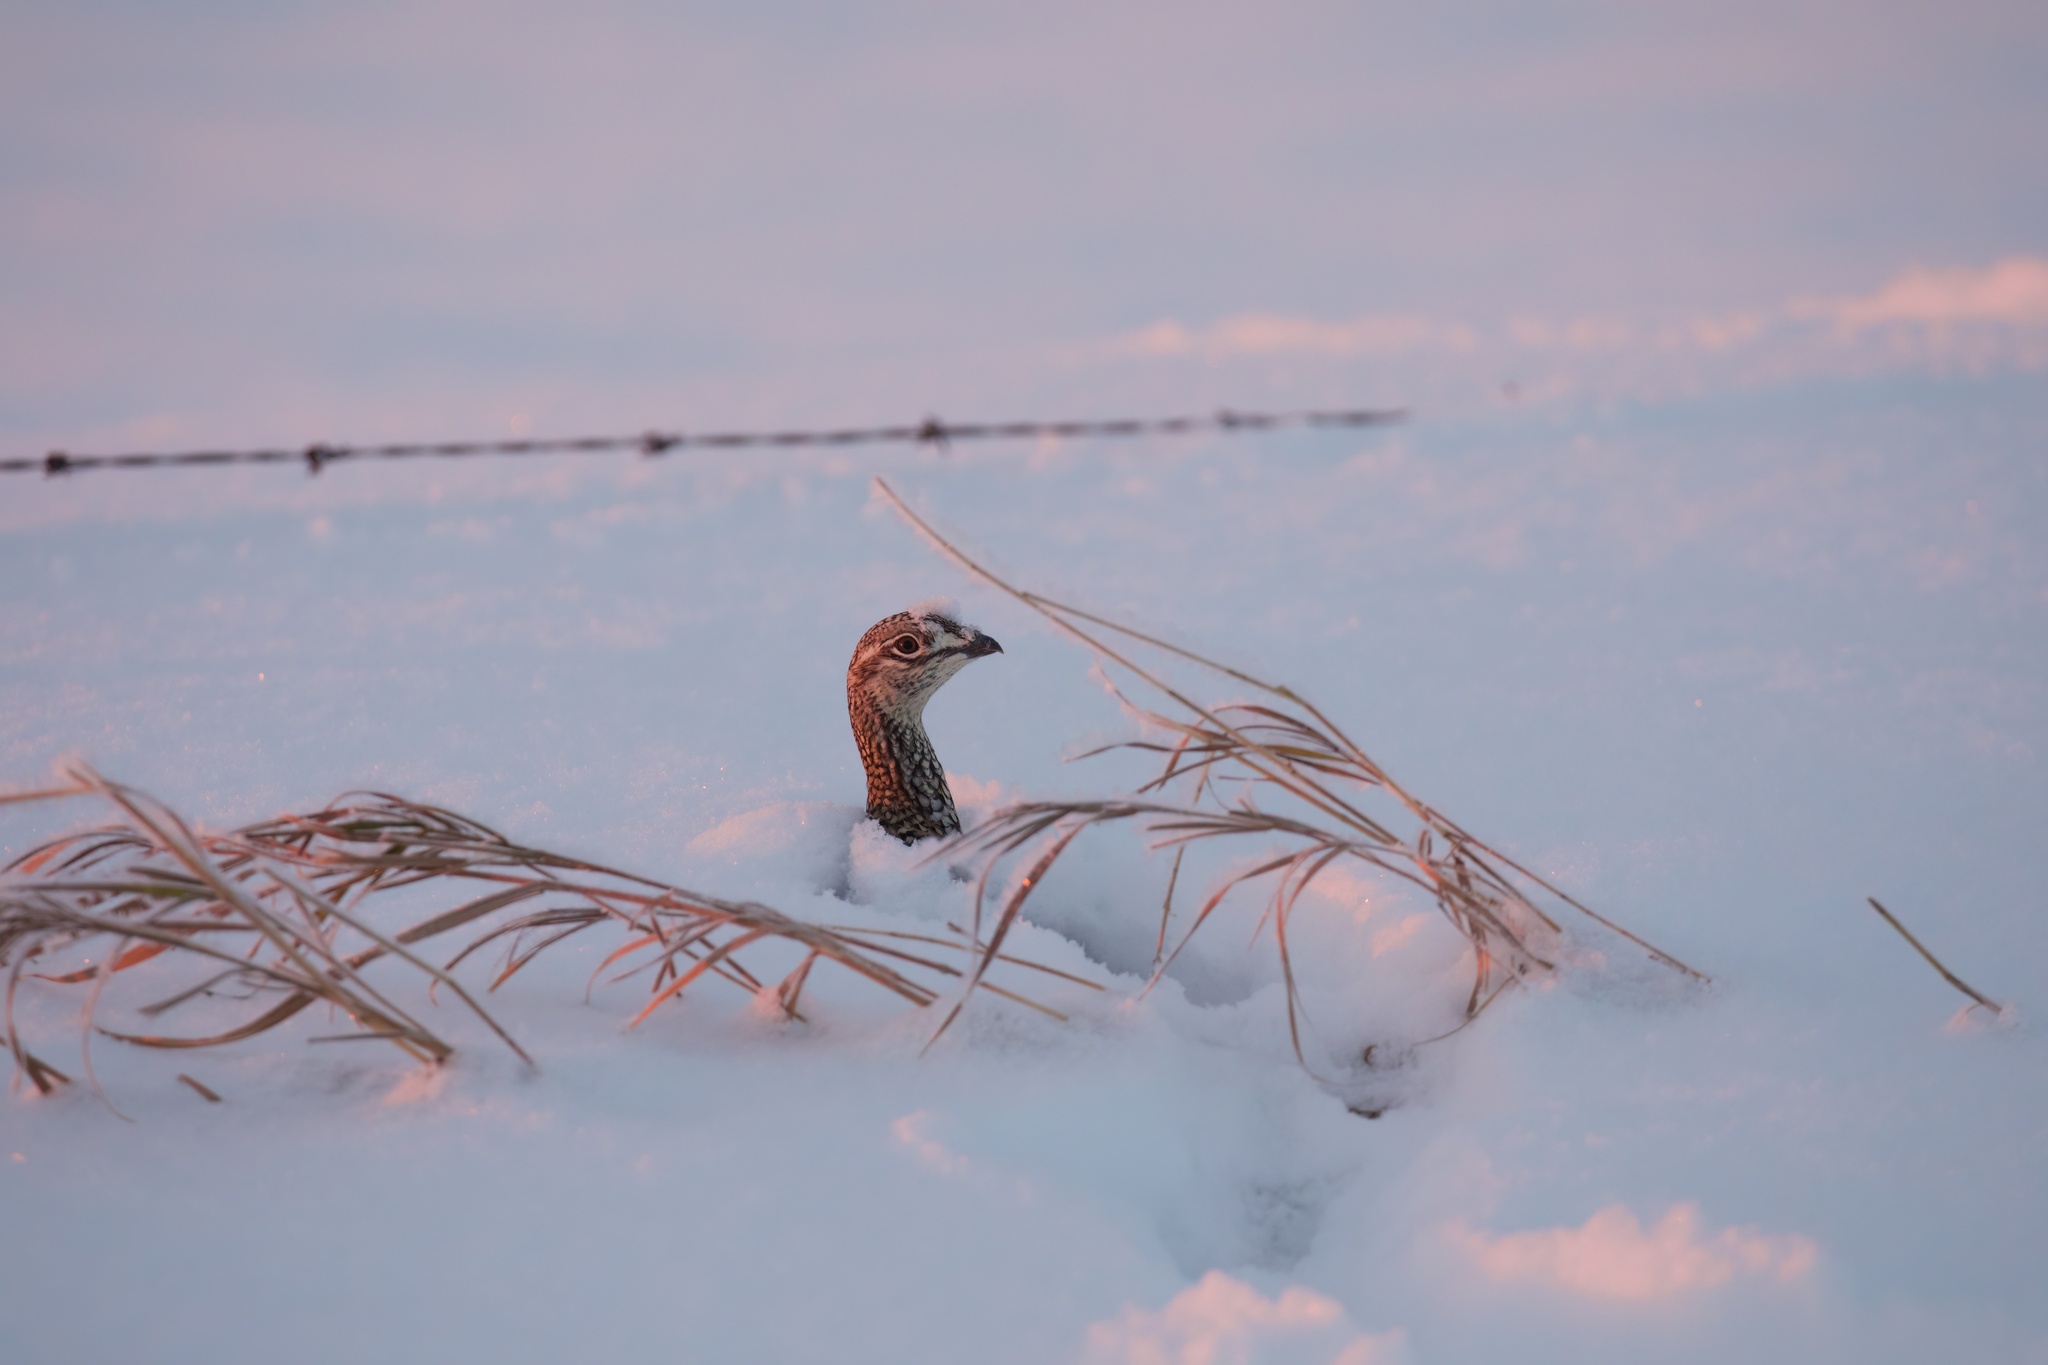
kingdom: Animalia
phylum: Chordata
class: Aves
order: Galliformes
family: Phasianidae
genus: Tympanuchus
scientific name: Tympanuchus phasianellus
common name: Sharp-tailed grouse
